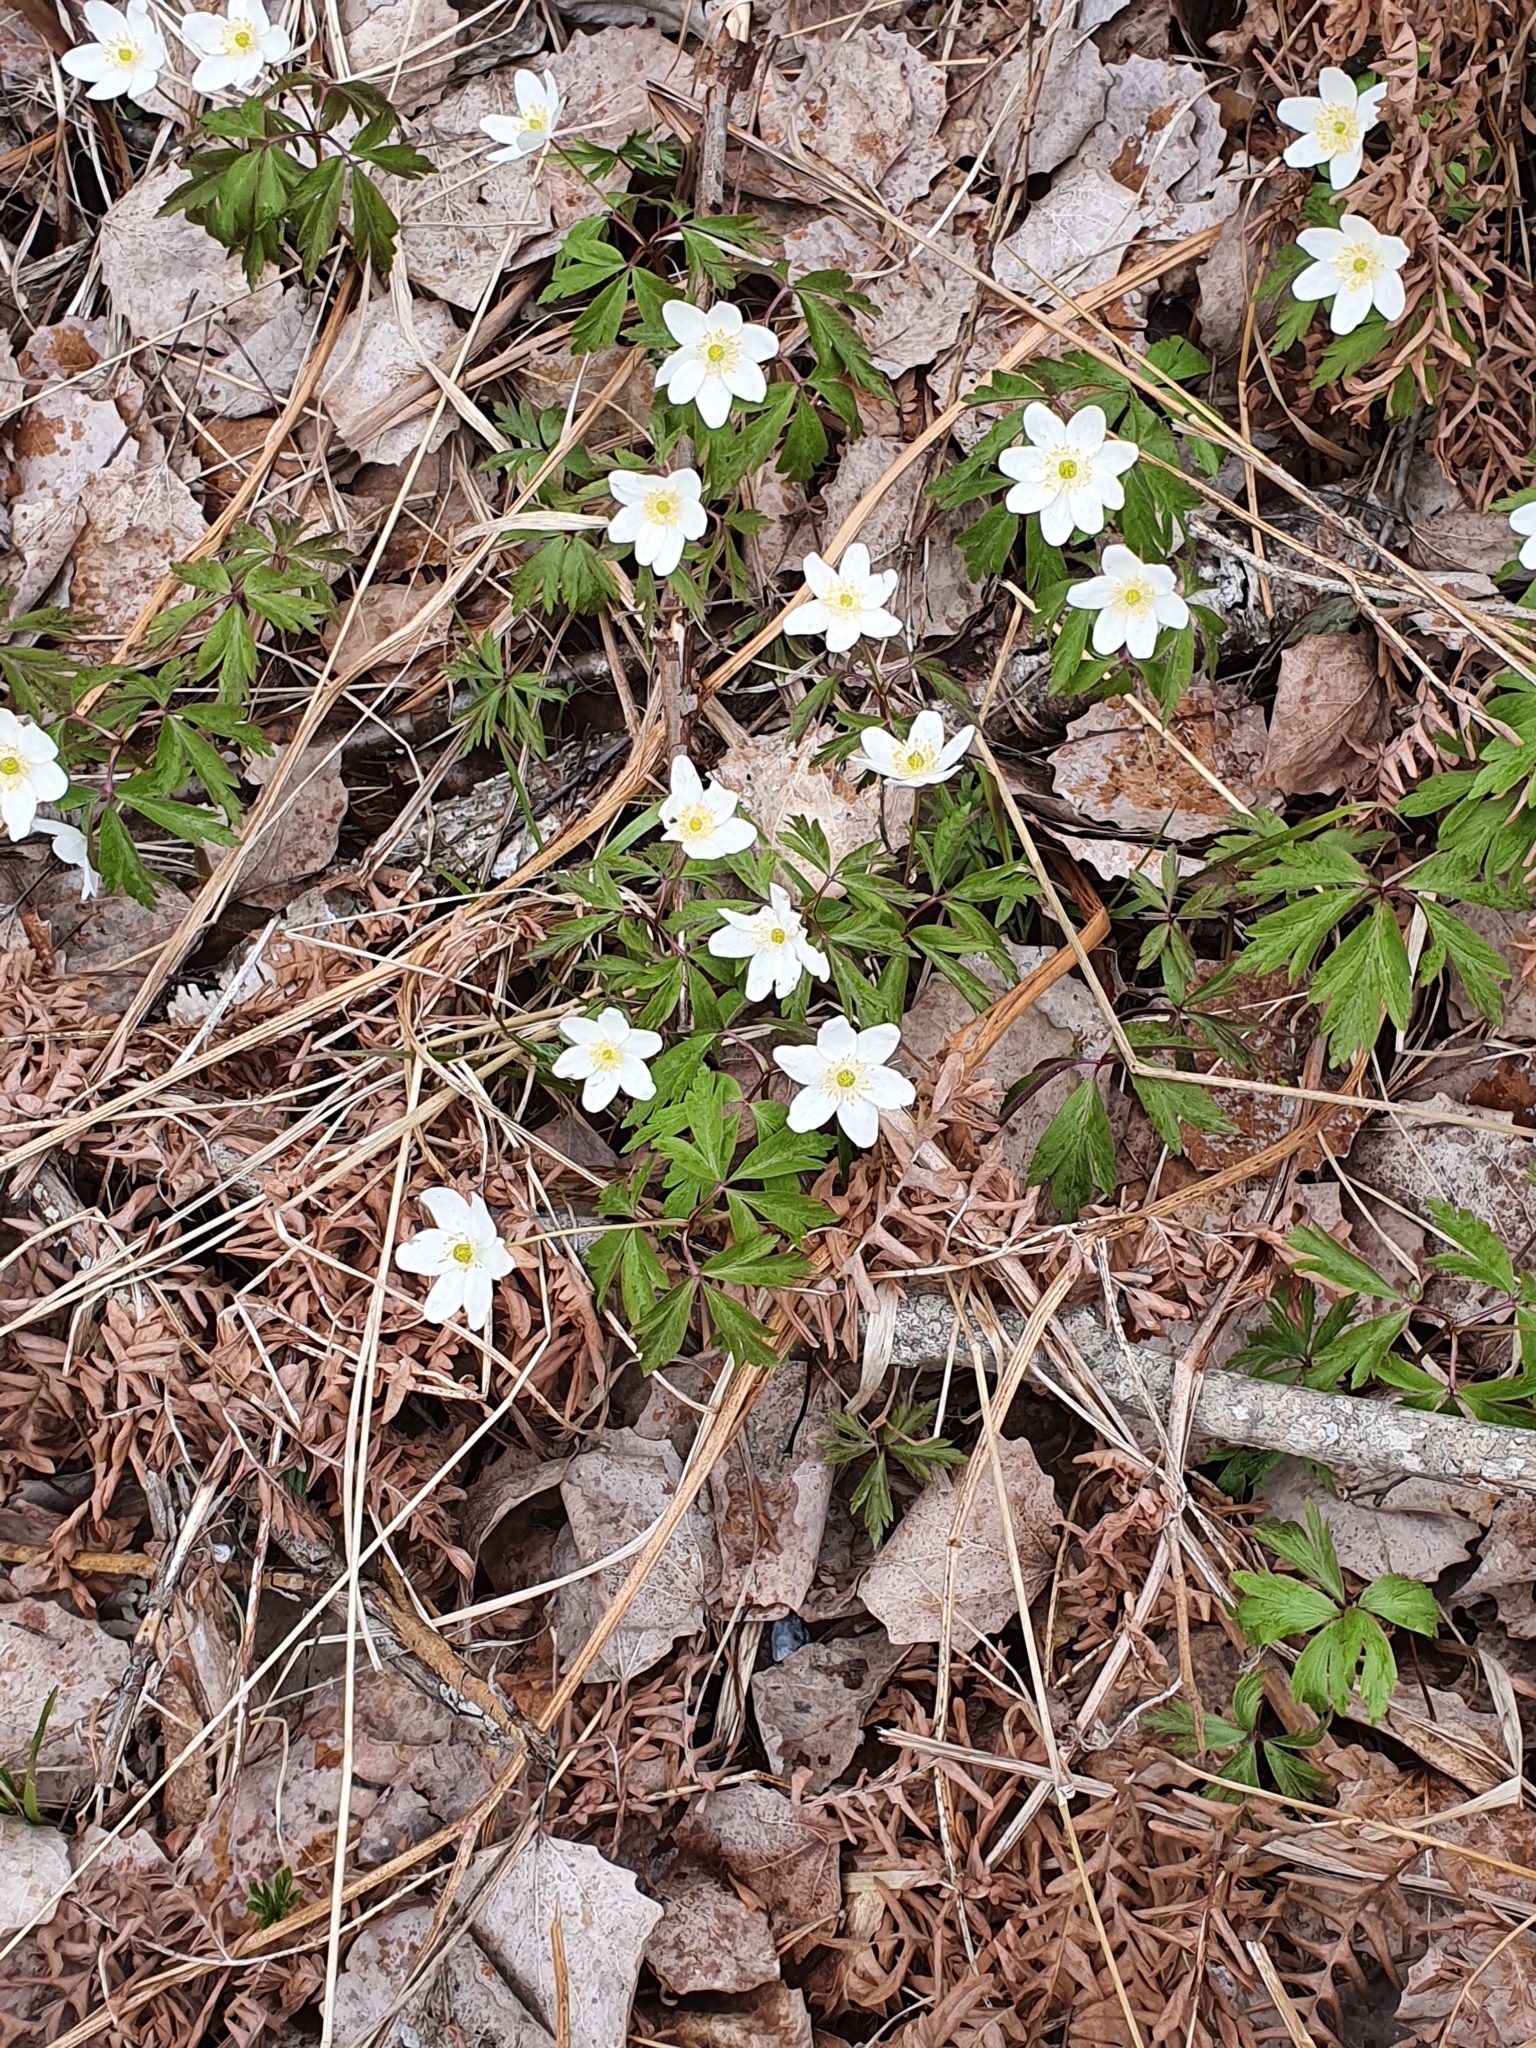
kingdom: Plantae
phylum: Tracheophyta
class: Magnoliopsida
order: Ranunculales
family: Ranunculaceae
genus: Anemone
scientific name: Anemone nemorosa
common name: Wood anemone
